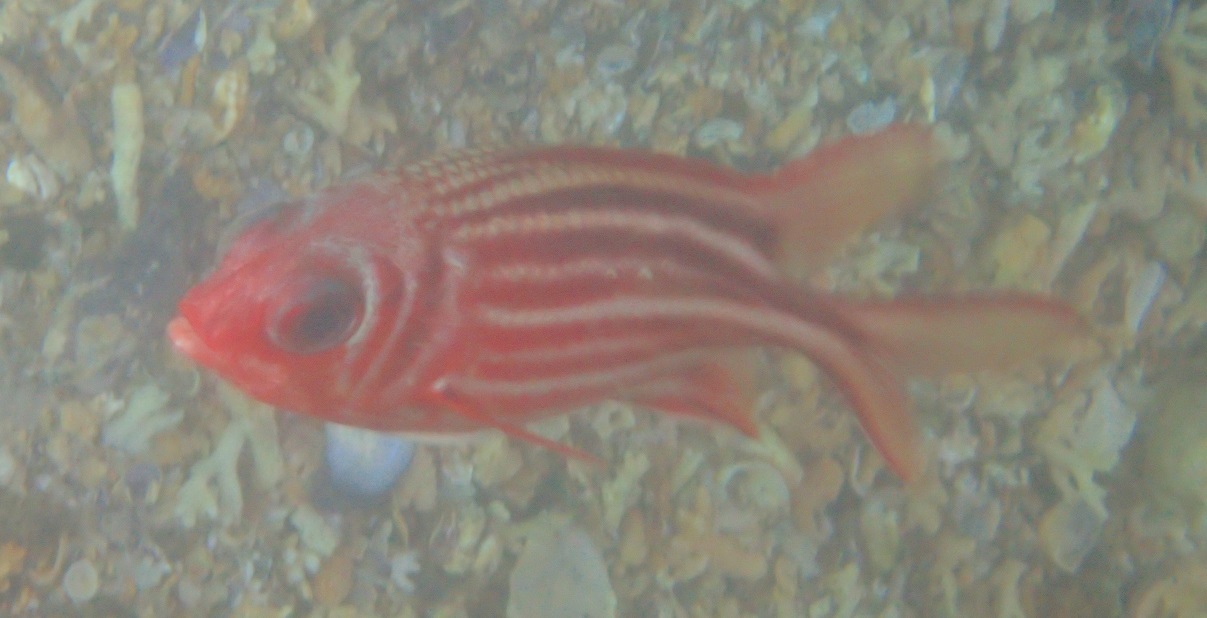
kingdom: Animalia
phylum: Chordata
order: Beryciformes
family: Holocentridae
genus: Sargocentron
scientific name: Sargocentron rubrum
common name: Redcoat
